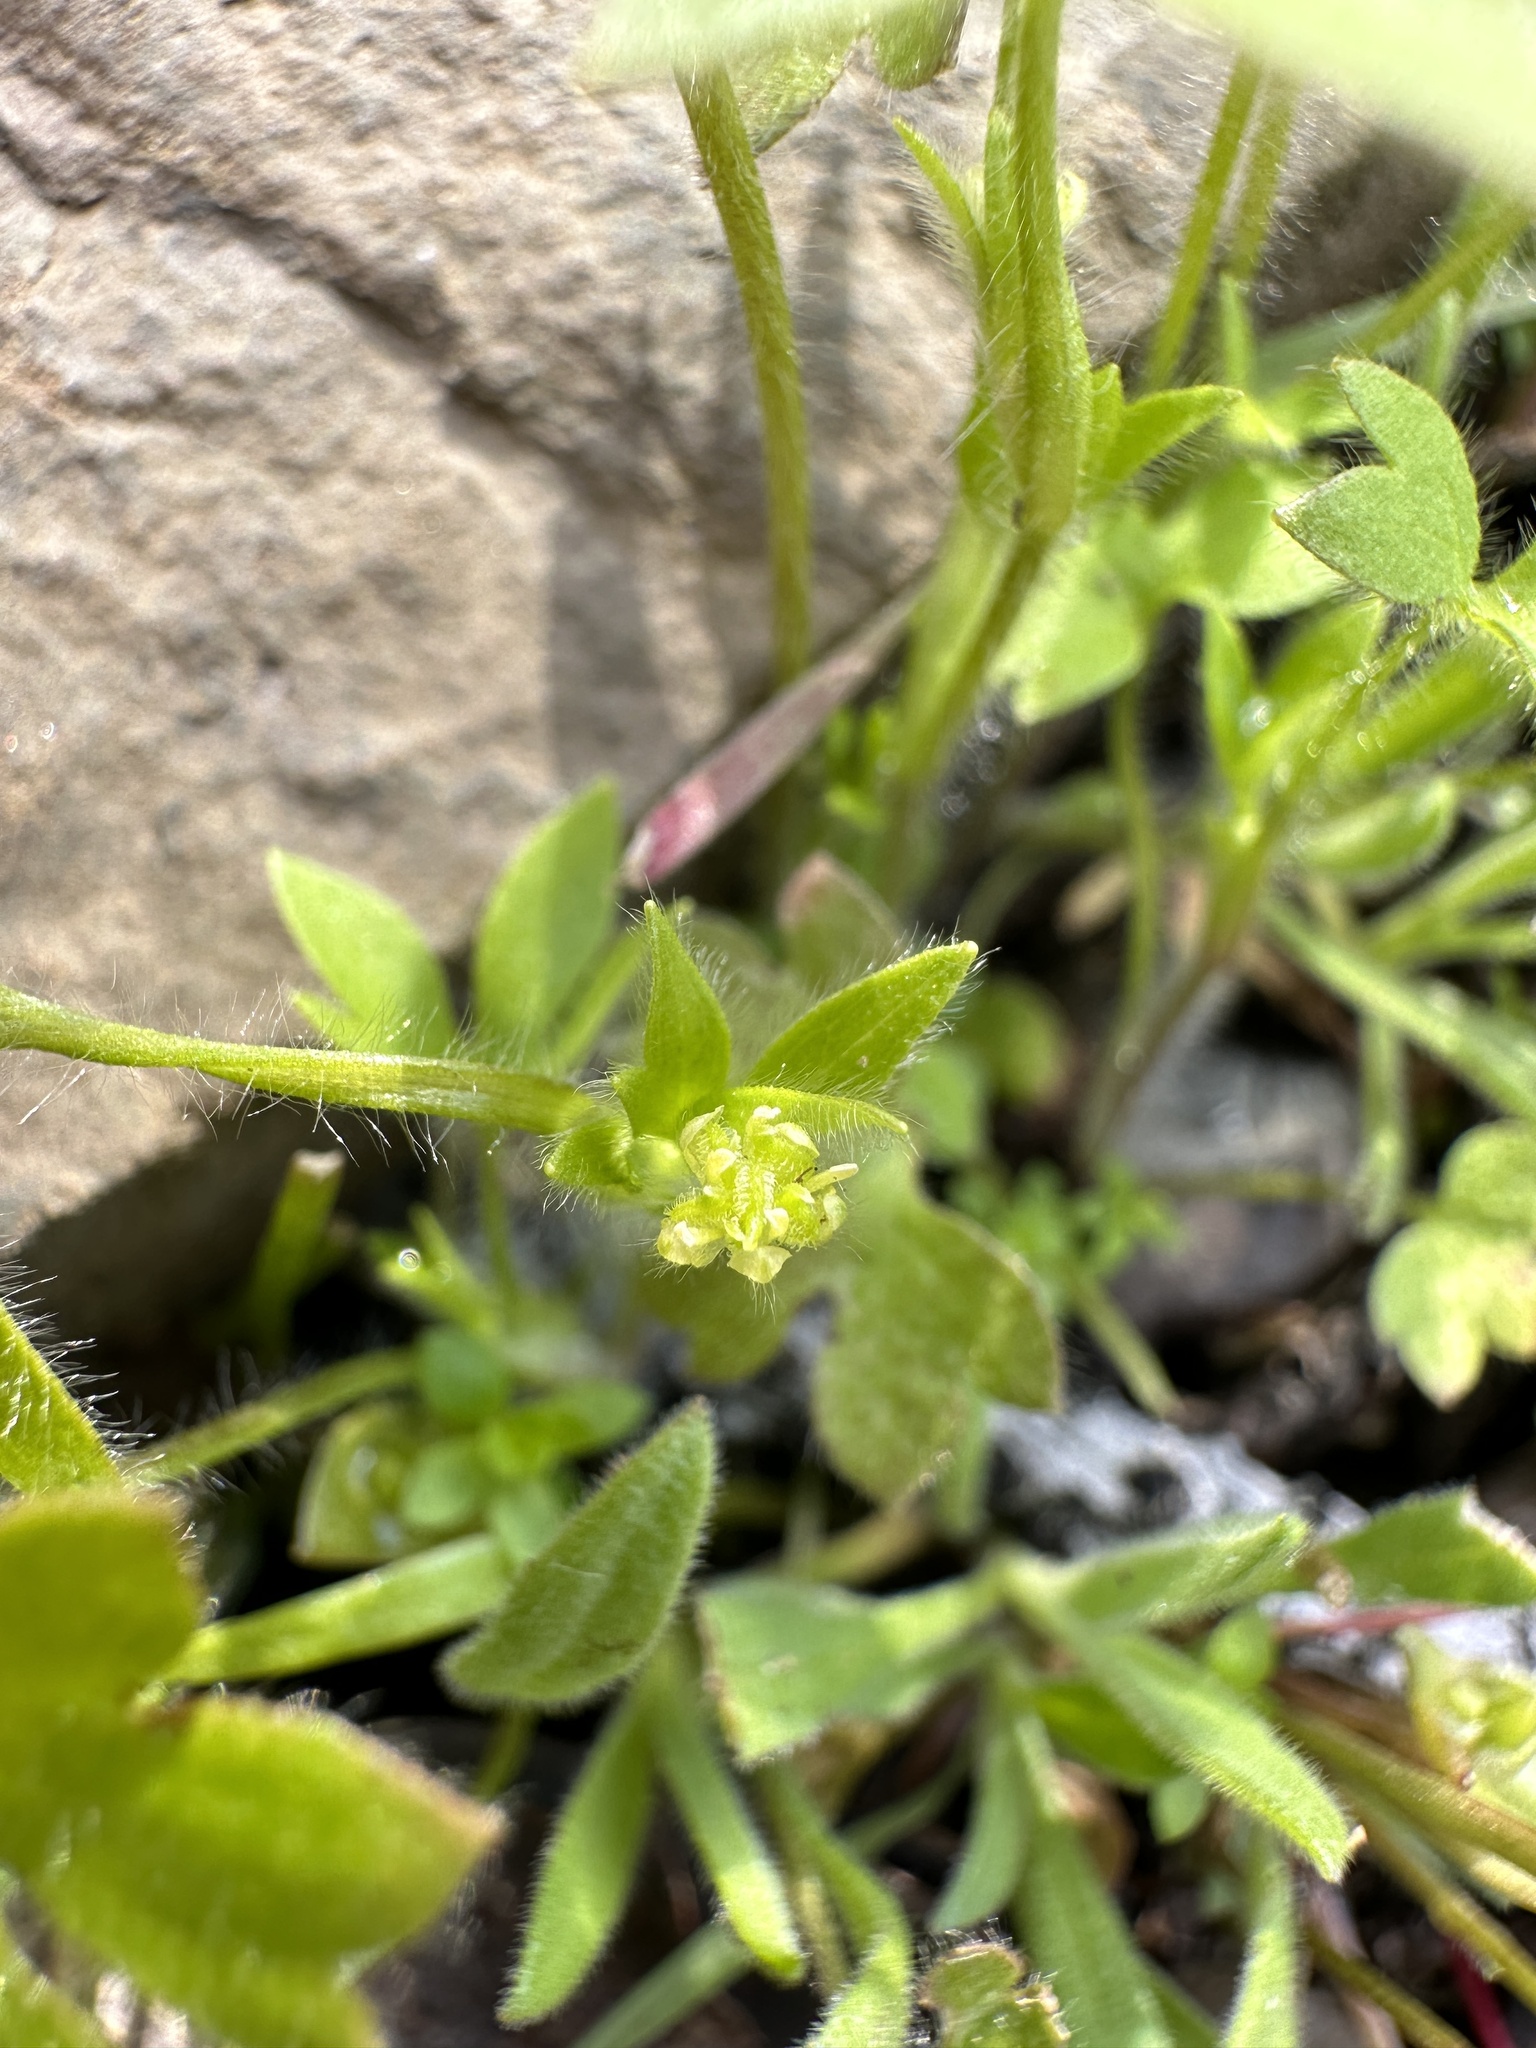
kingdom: Plantae
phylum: Tracheophyta
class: Magnoliopsida
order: Ranunculales
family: Ranunculaceae
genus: Ranunculus
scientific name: Ranunculus hebecarpus
